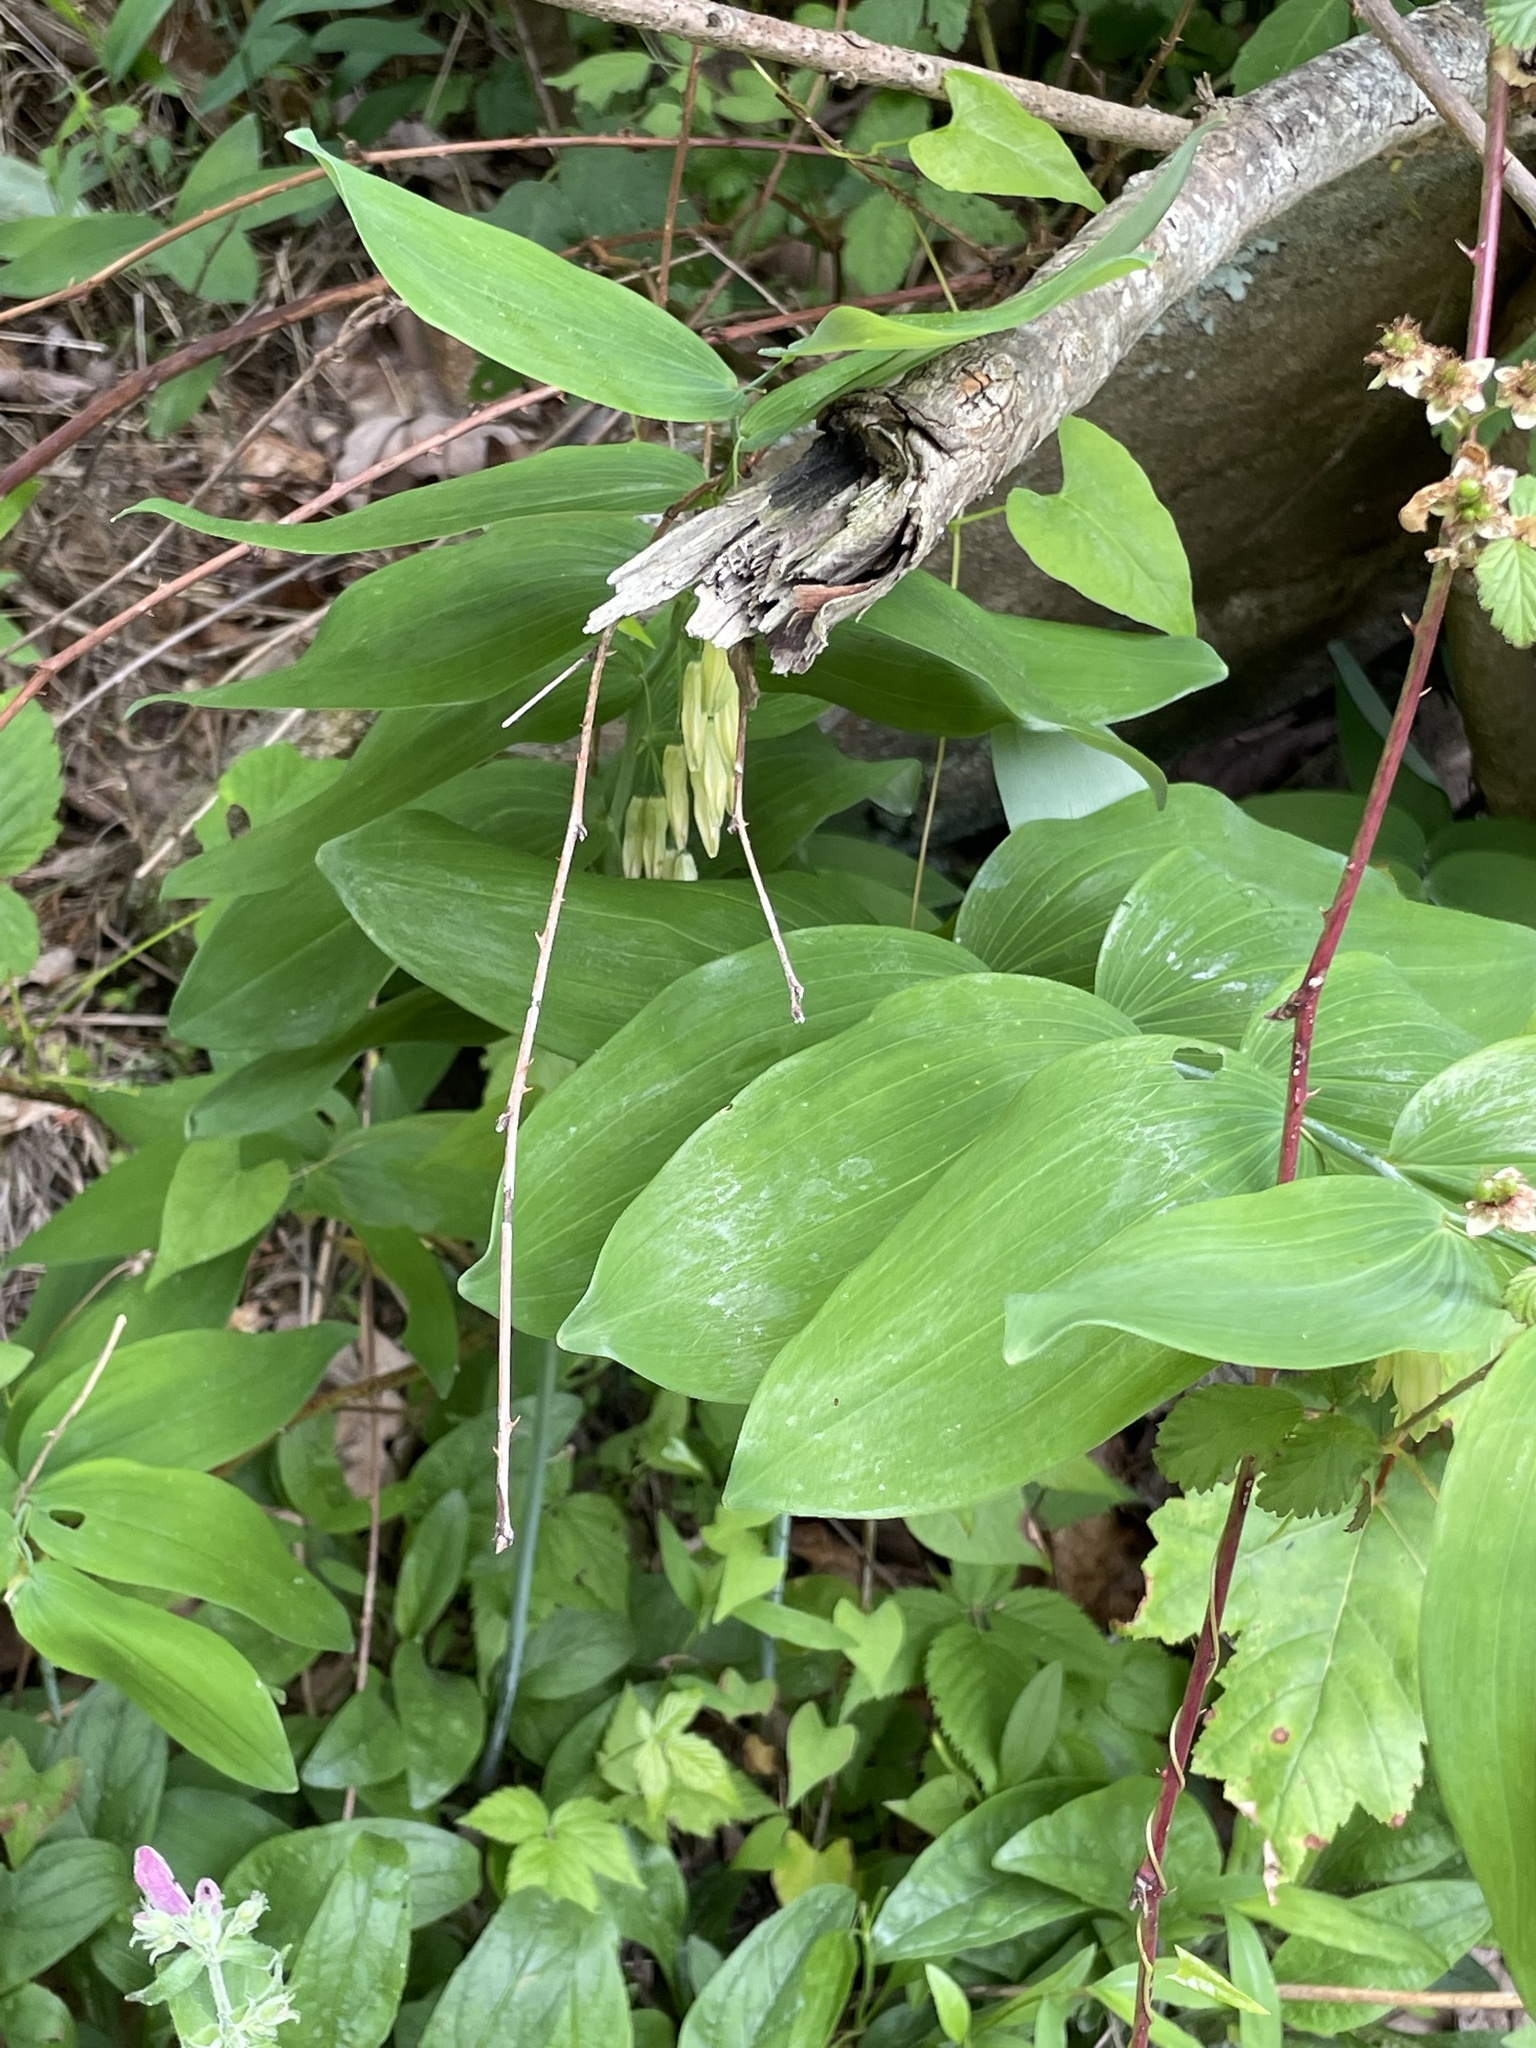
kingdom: Plantae
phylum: Tracheophyta
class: Liliopsida
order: Asparagales
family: Asparagaceae
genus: Polygonatum
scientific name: Polygonatum biflorum
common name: American solomon's-seal
